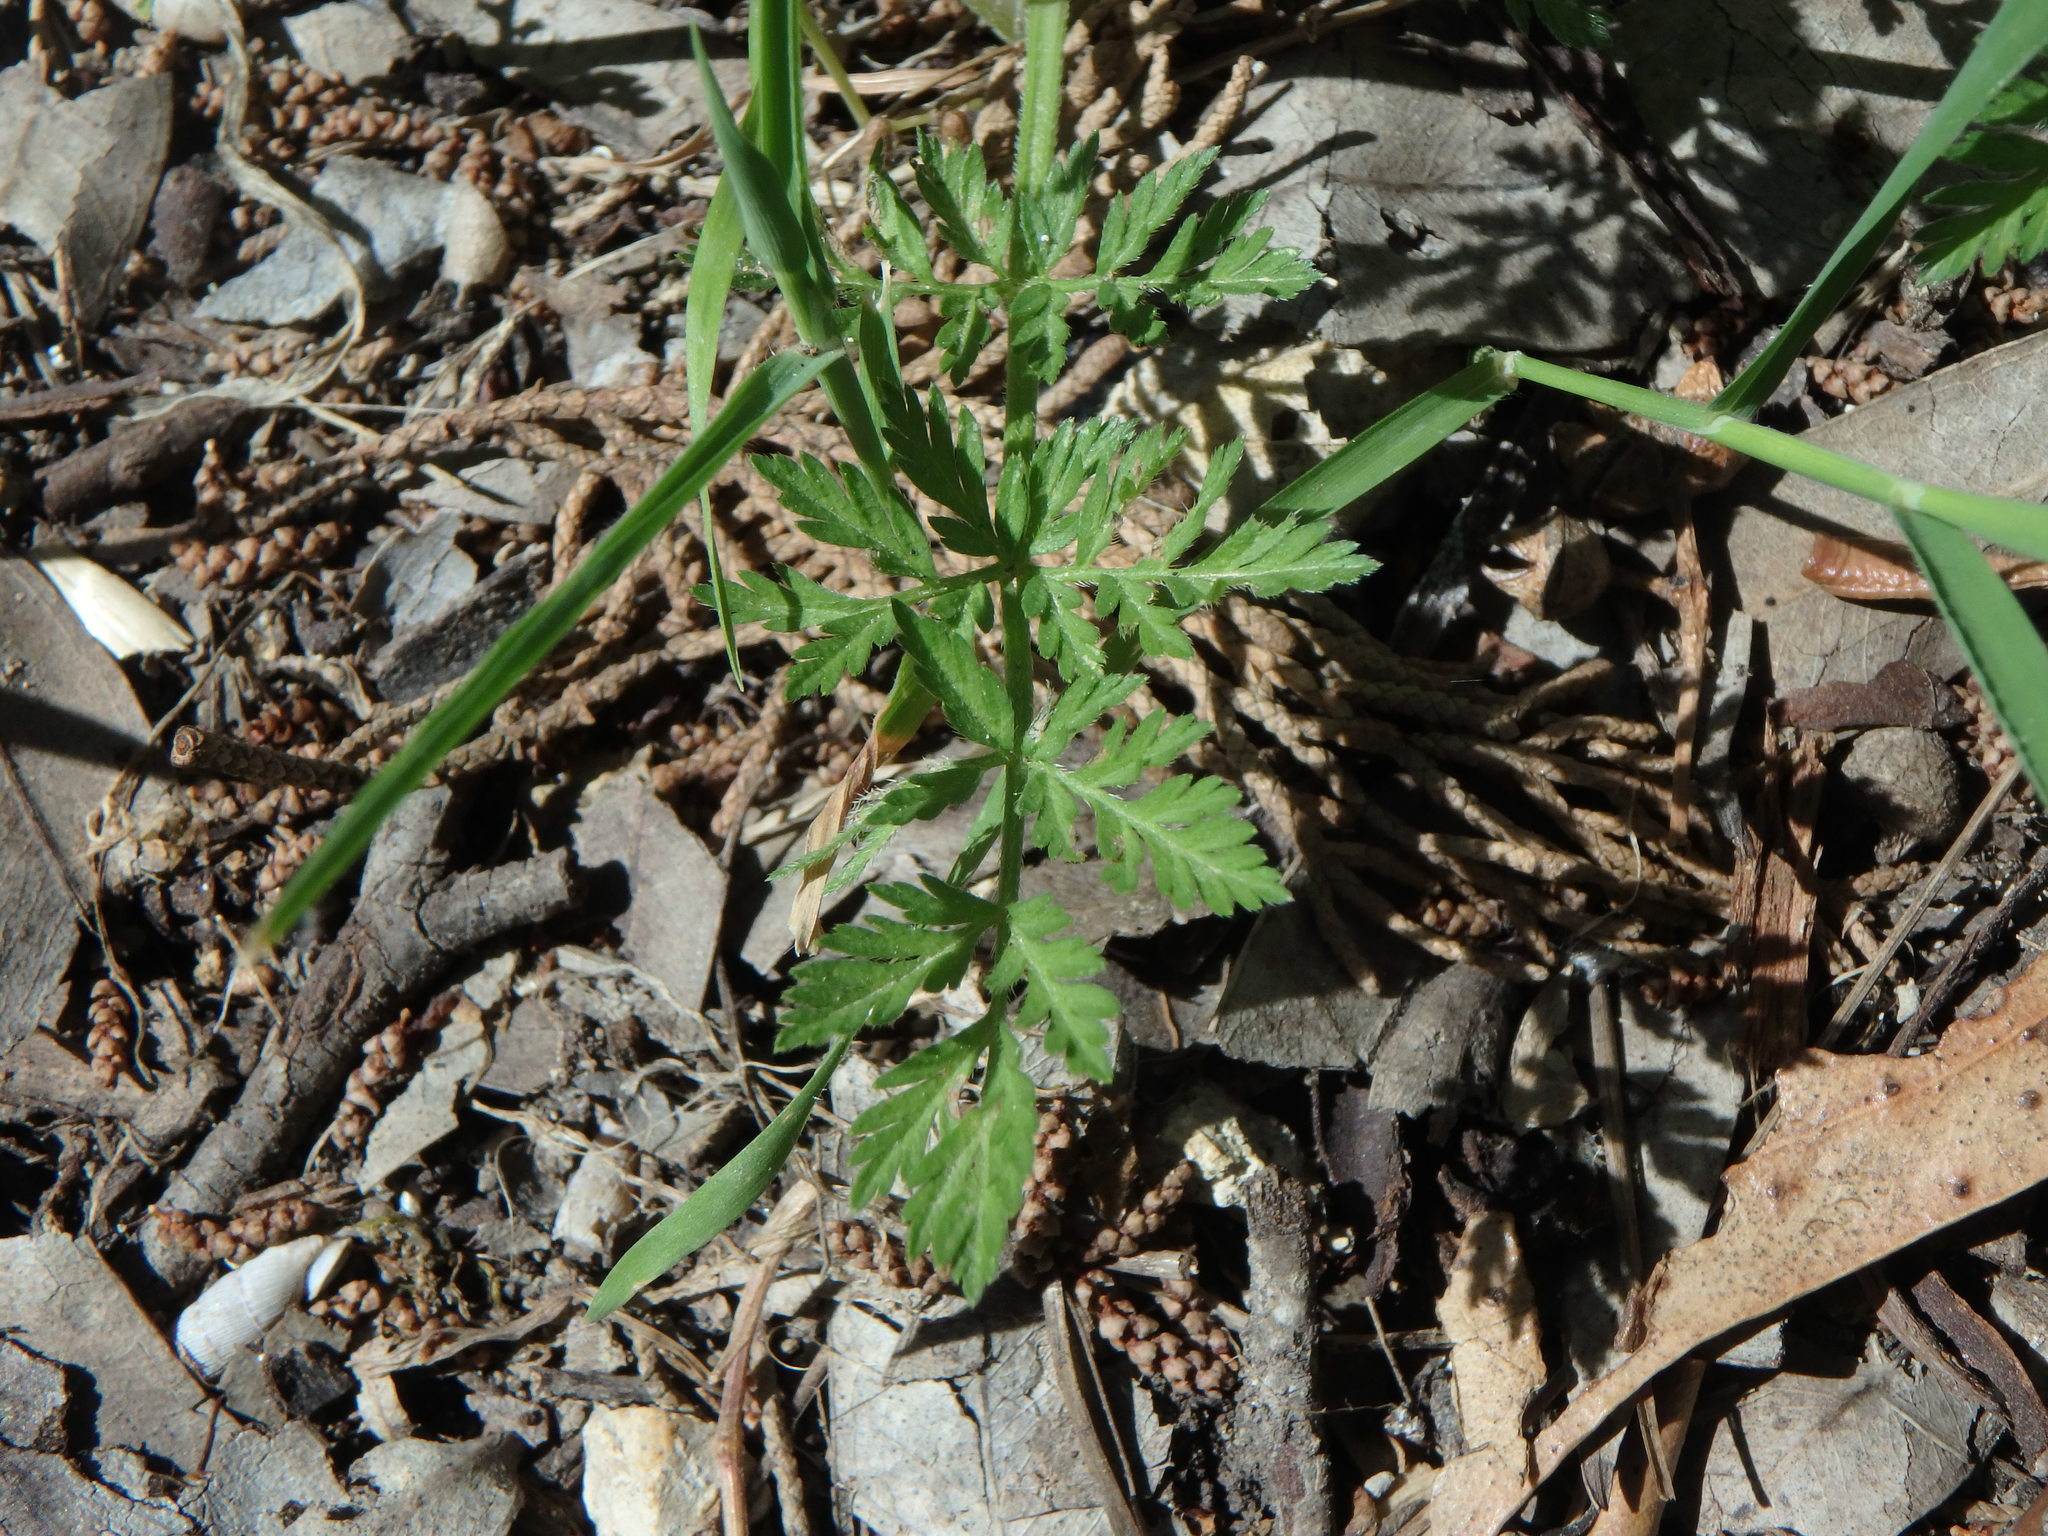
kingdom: Plantae
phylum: Tracheophyta
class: Magnoliopsida
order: Apiales
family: Apiaceae
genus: Torilis
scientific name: Torilis nodosa
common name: Knotted hedge-parsley
